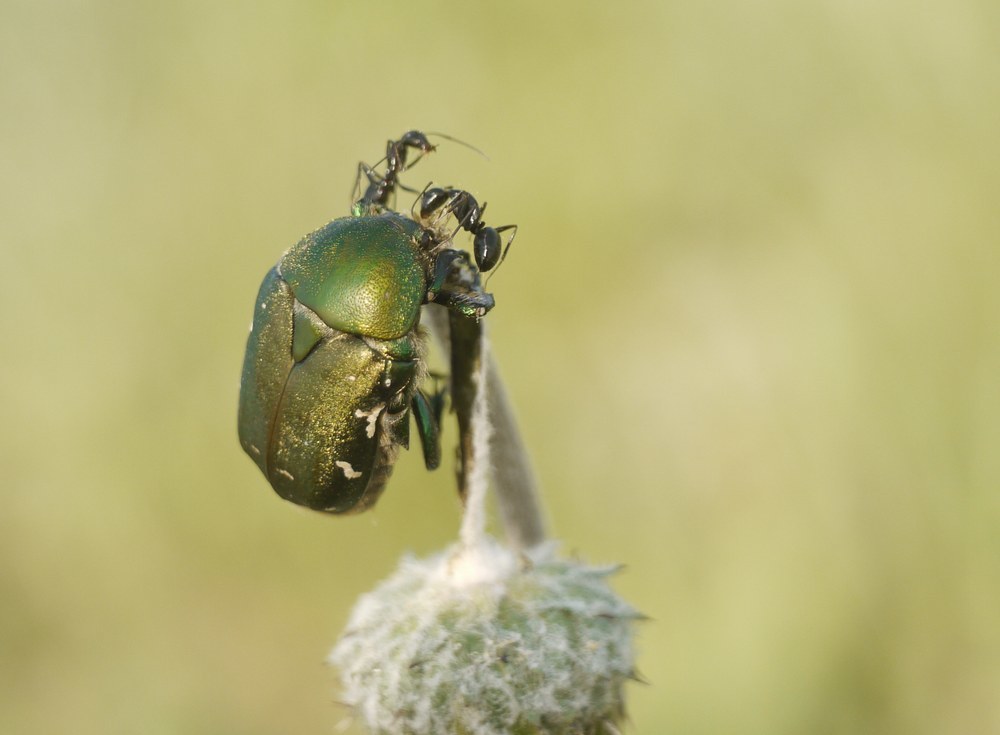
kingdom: Animalia
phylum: Arthropoda
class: Insecta
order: Coleoptera
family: Scarabaeidae
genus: Protaetia
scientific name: Protaetia ungarica
